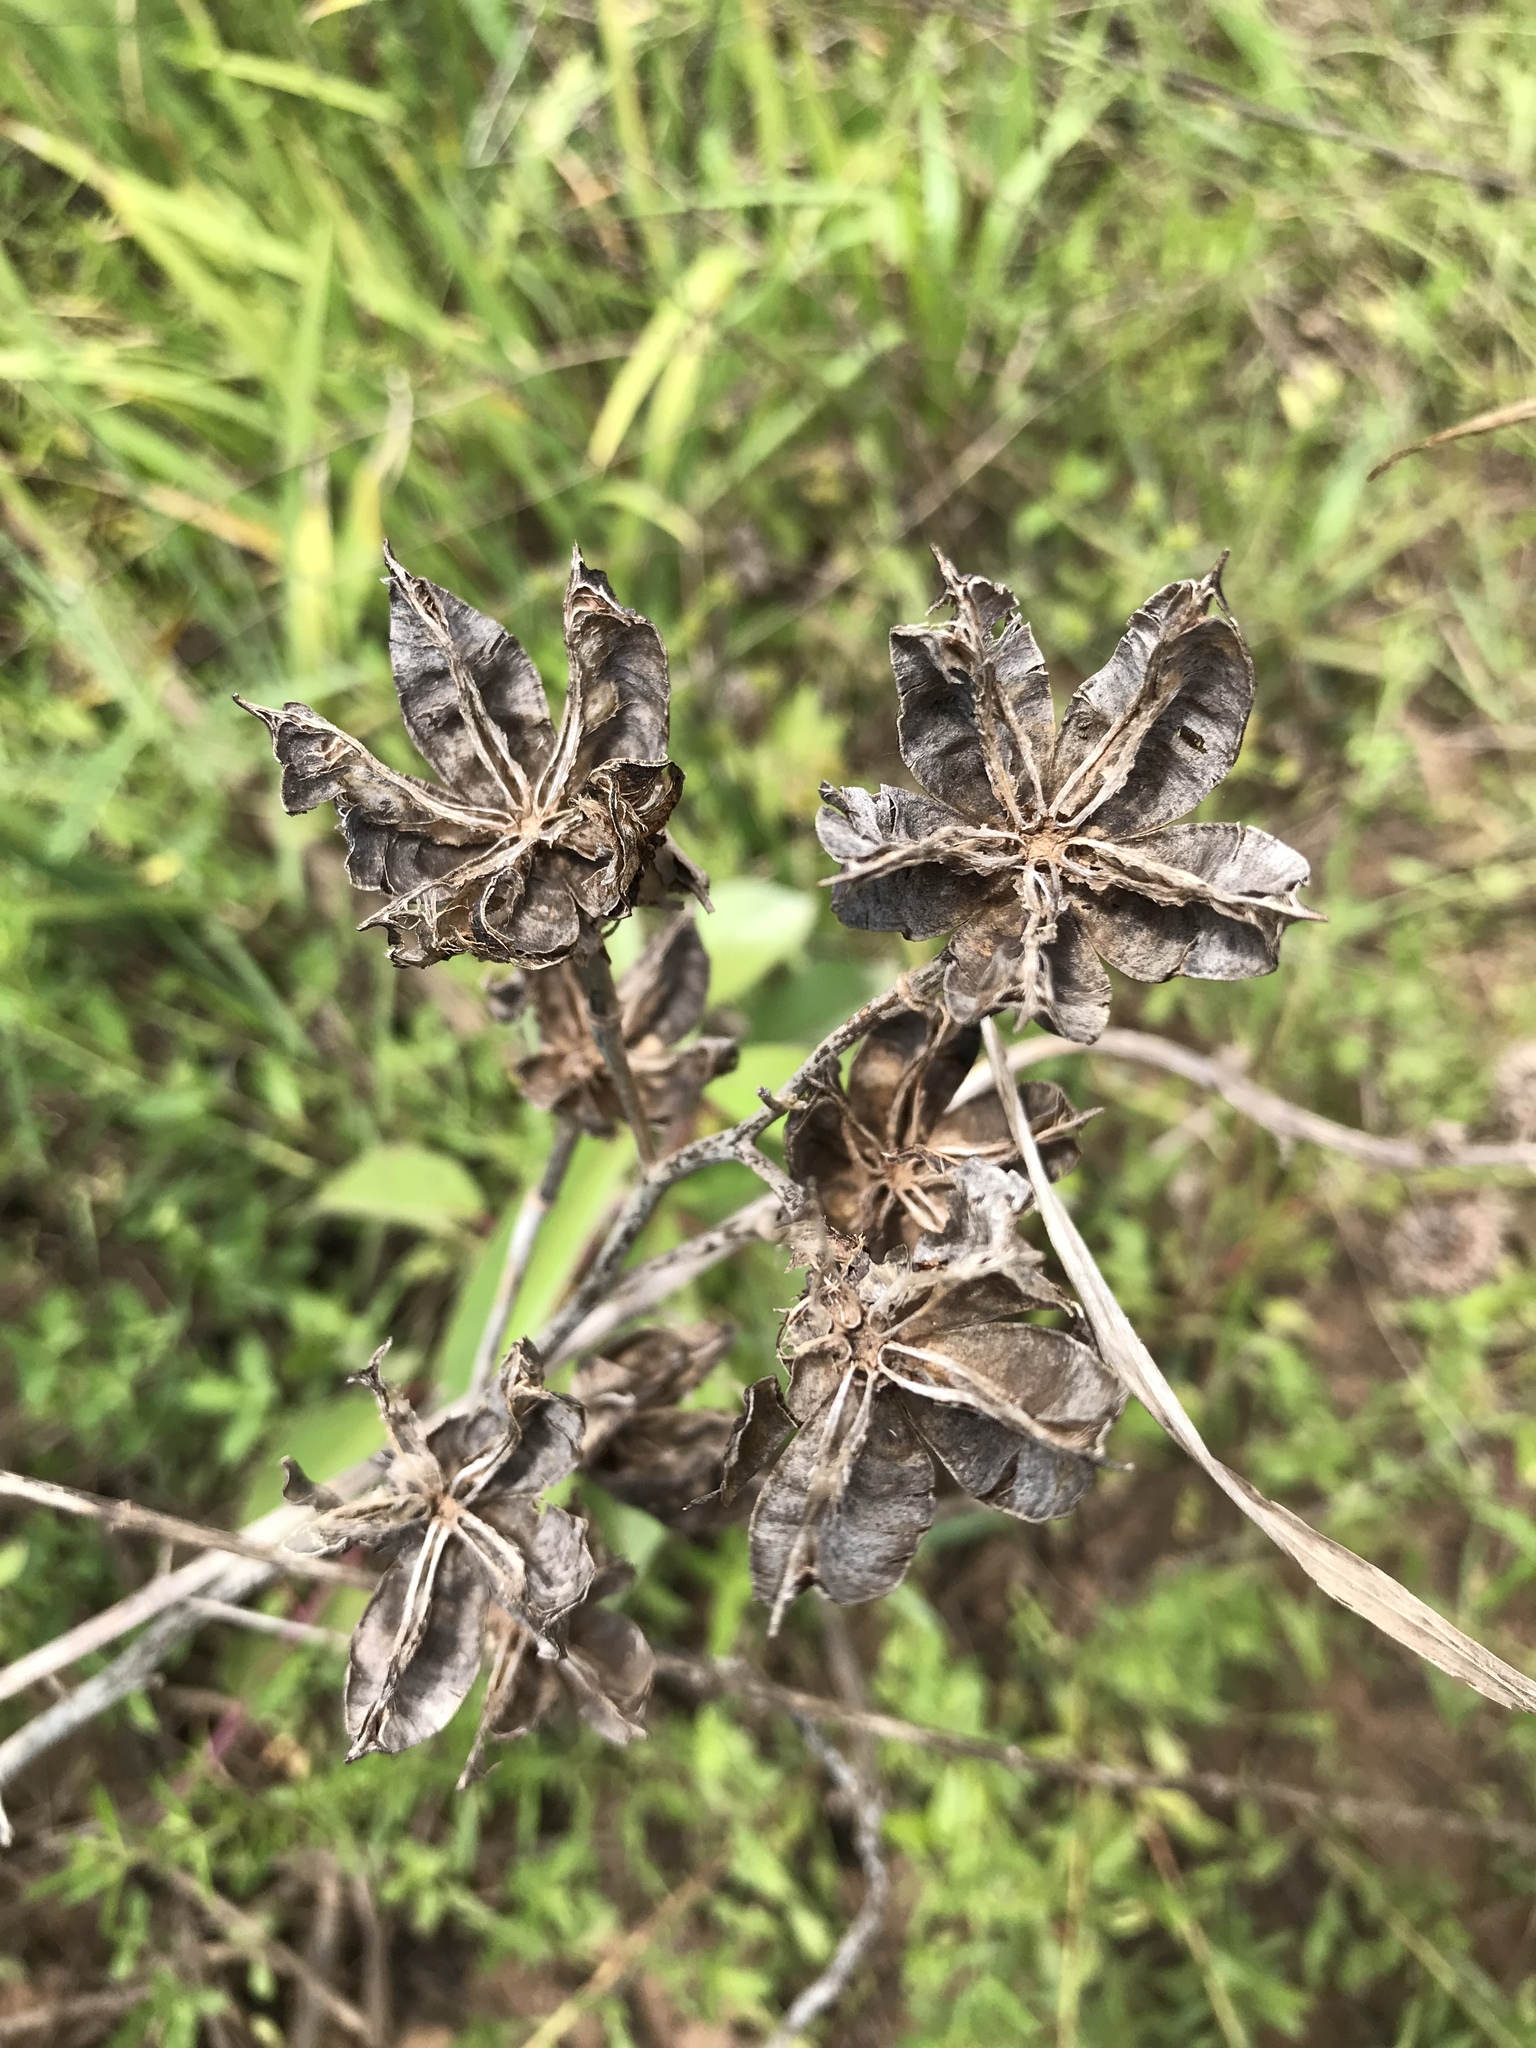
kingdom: Plantae
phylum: Tracheophyta
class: Magnoliopsida
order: Malvales
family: Malvaceae
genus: Hibiscus
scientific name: Hibiscus moscheutos
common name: Common rose-mallow
